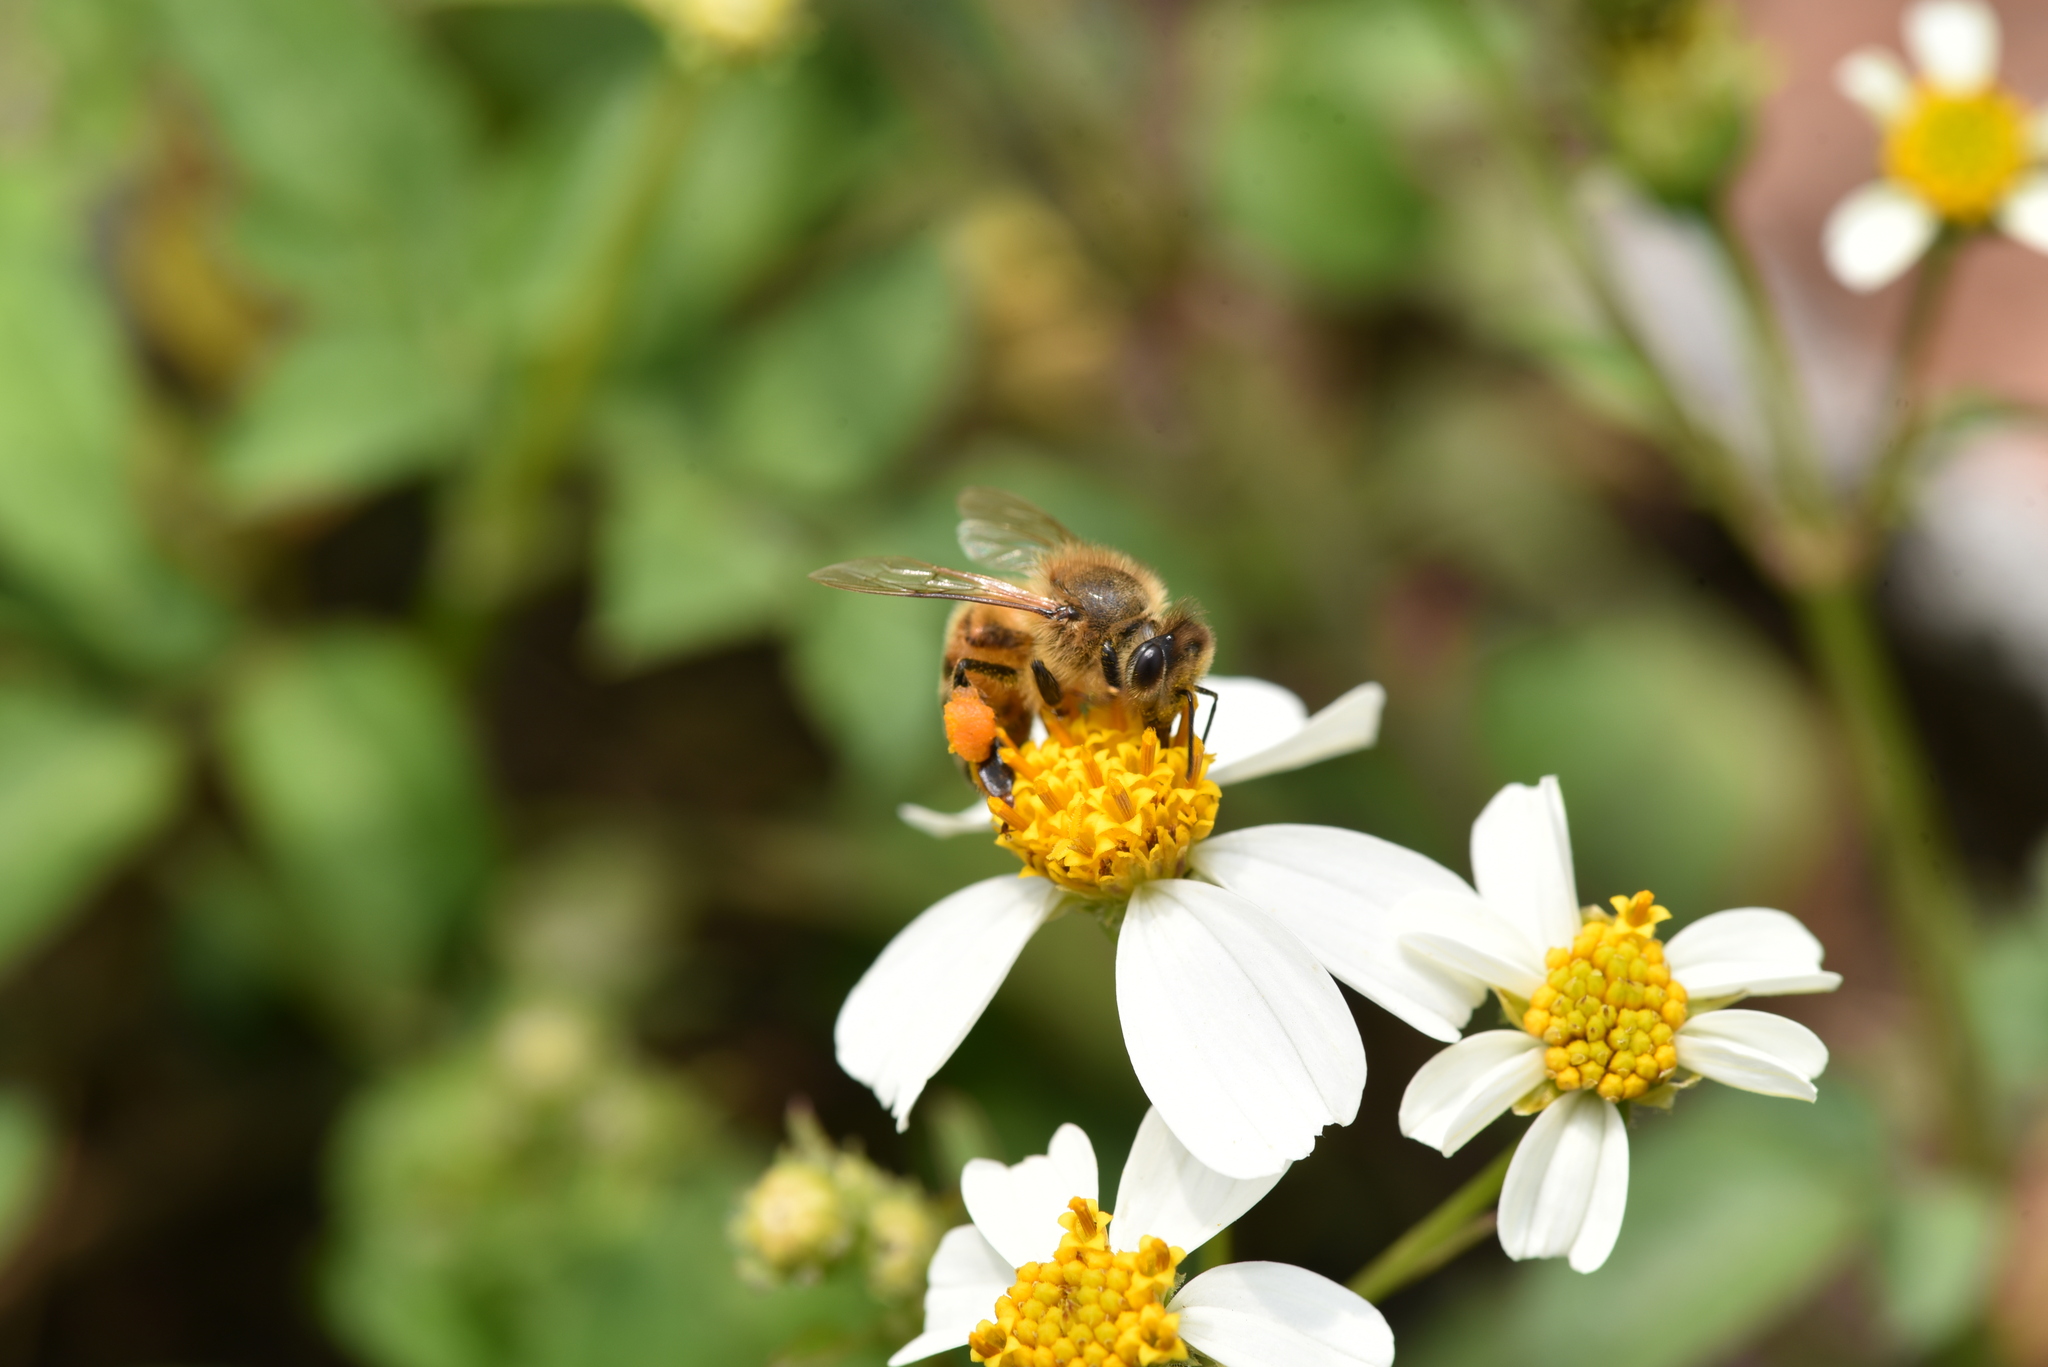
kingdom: Animalia
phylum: Arthropoda
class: Insecta
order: Hymenoptera
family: Apidae
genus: Apis
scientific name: Apis mellifera
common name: Honey bee
